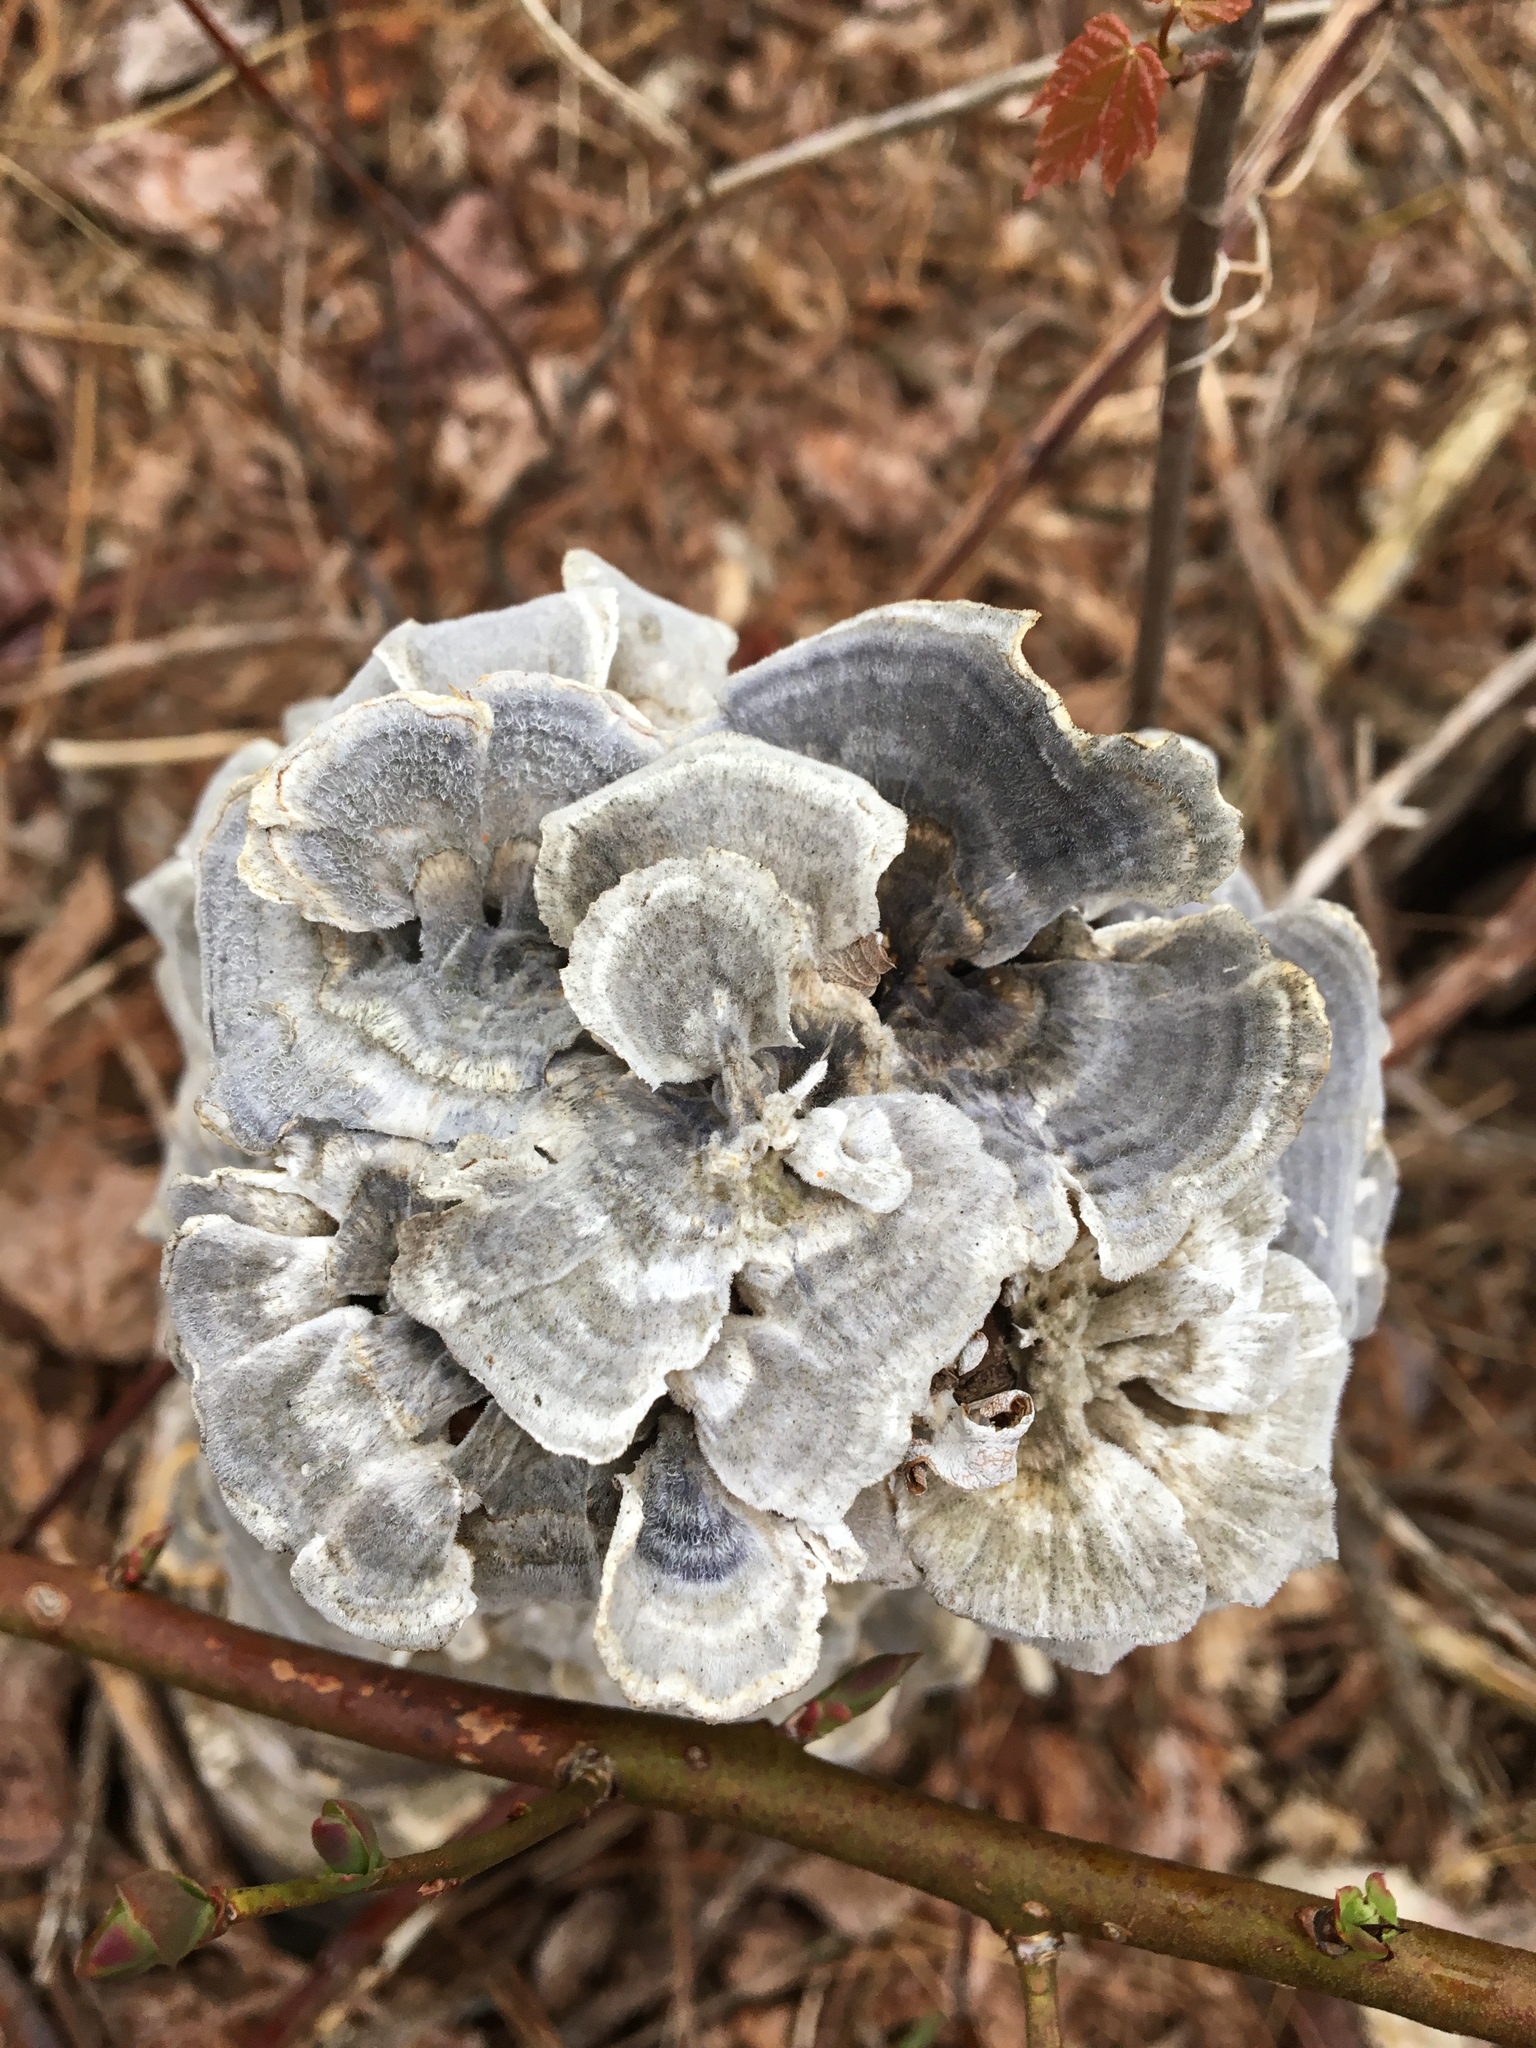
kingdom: Fungi
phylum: Basidiomycota
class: Agaricomycetes
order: Polyporales
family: Polyporaceae
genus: Trametes
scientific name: Trametes versicolor
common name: Turkeytail
